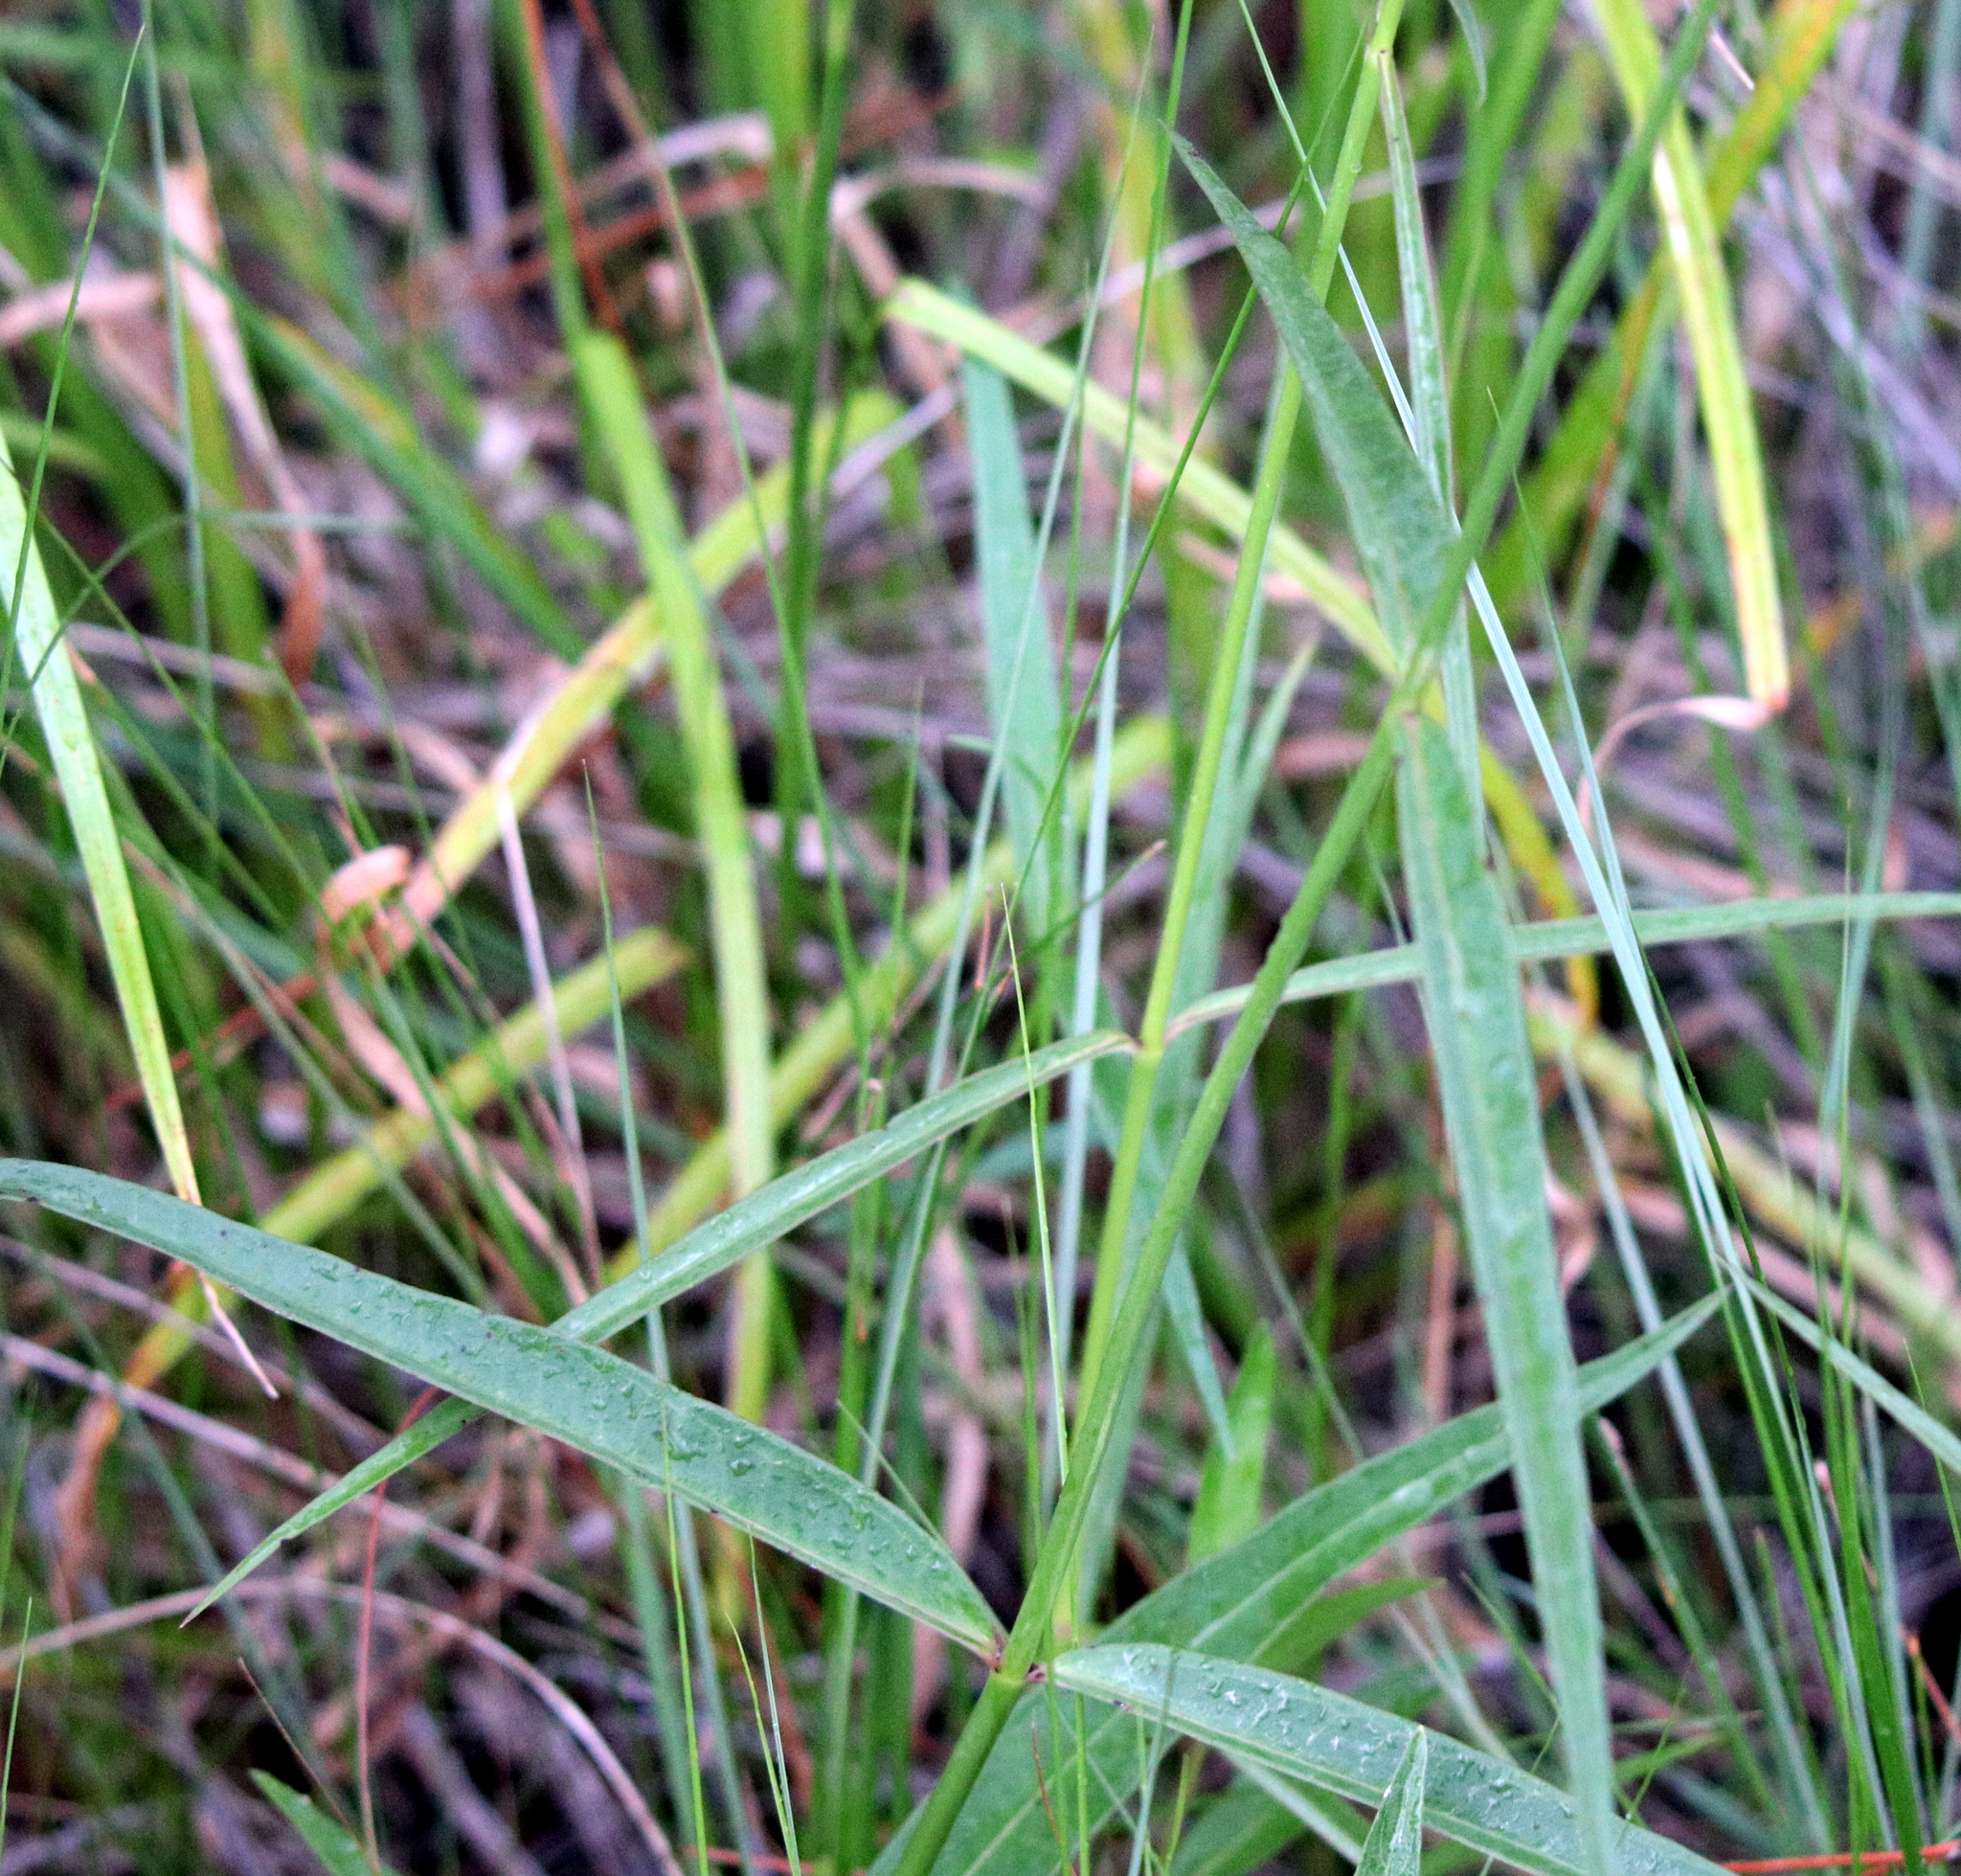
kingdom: Plantae
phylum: Tracheophyta
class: Magnoliopsida
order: Gentianales
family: Apocynaceae
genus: Asclepias
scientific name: Asclepias lanceolata
